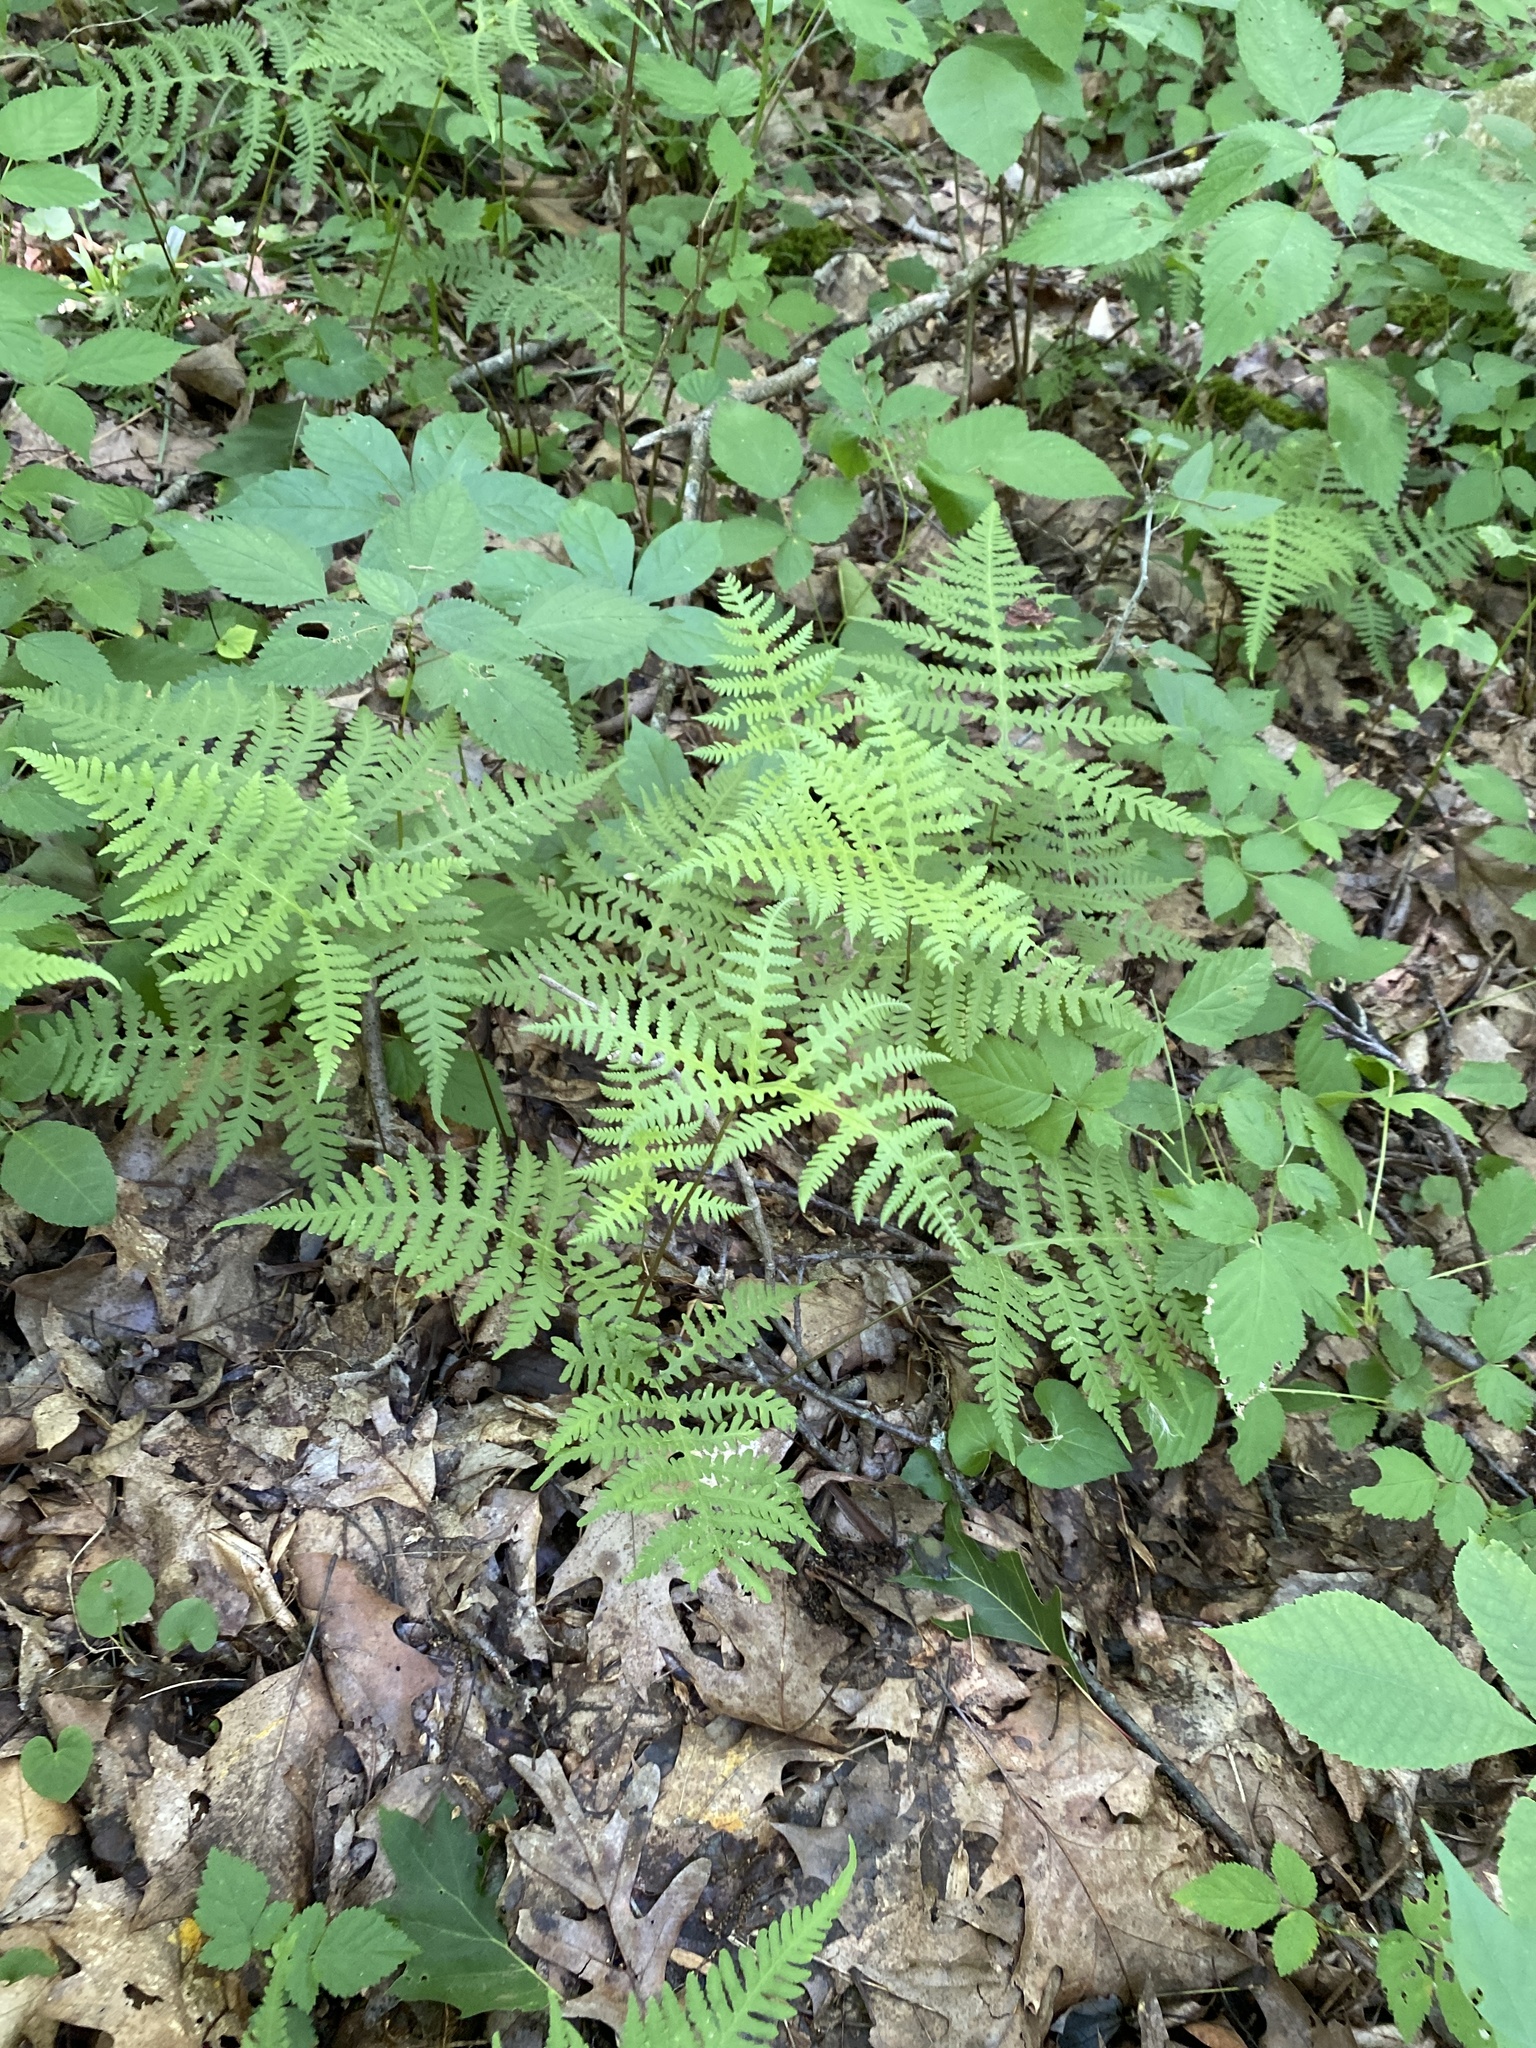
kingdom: Plantae
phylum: Tracheophyta
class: Polypodiopsida
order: Polypodiales
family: Thelypteridaceae
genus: Phegopteris
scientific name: Phegopteris hexagonoptera
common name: Broad beech fern
